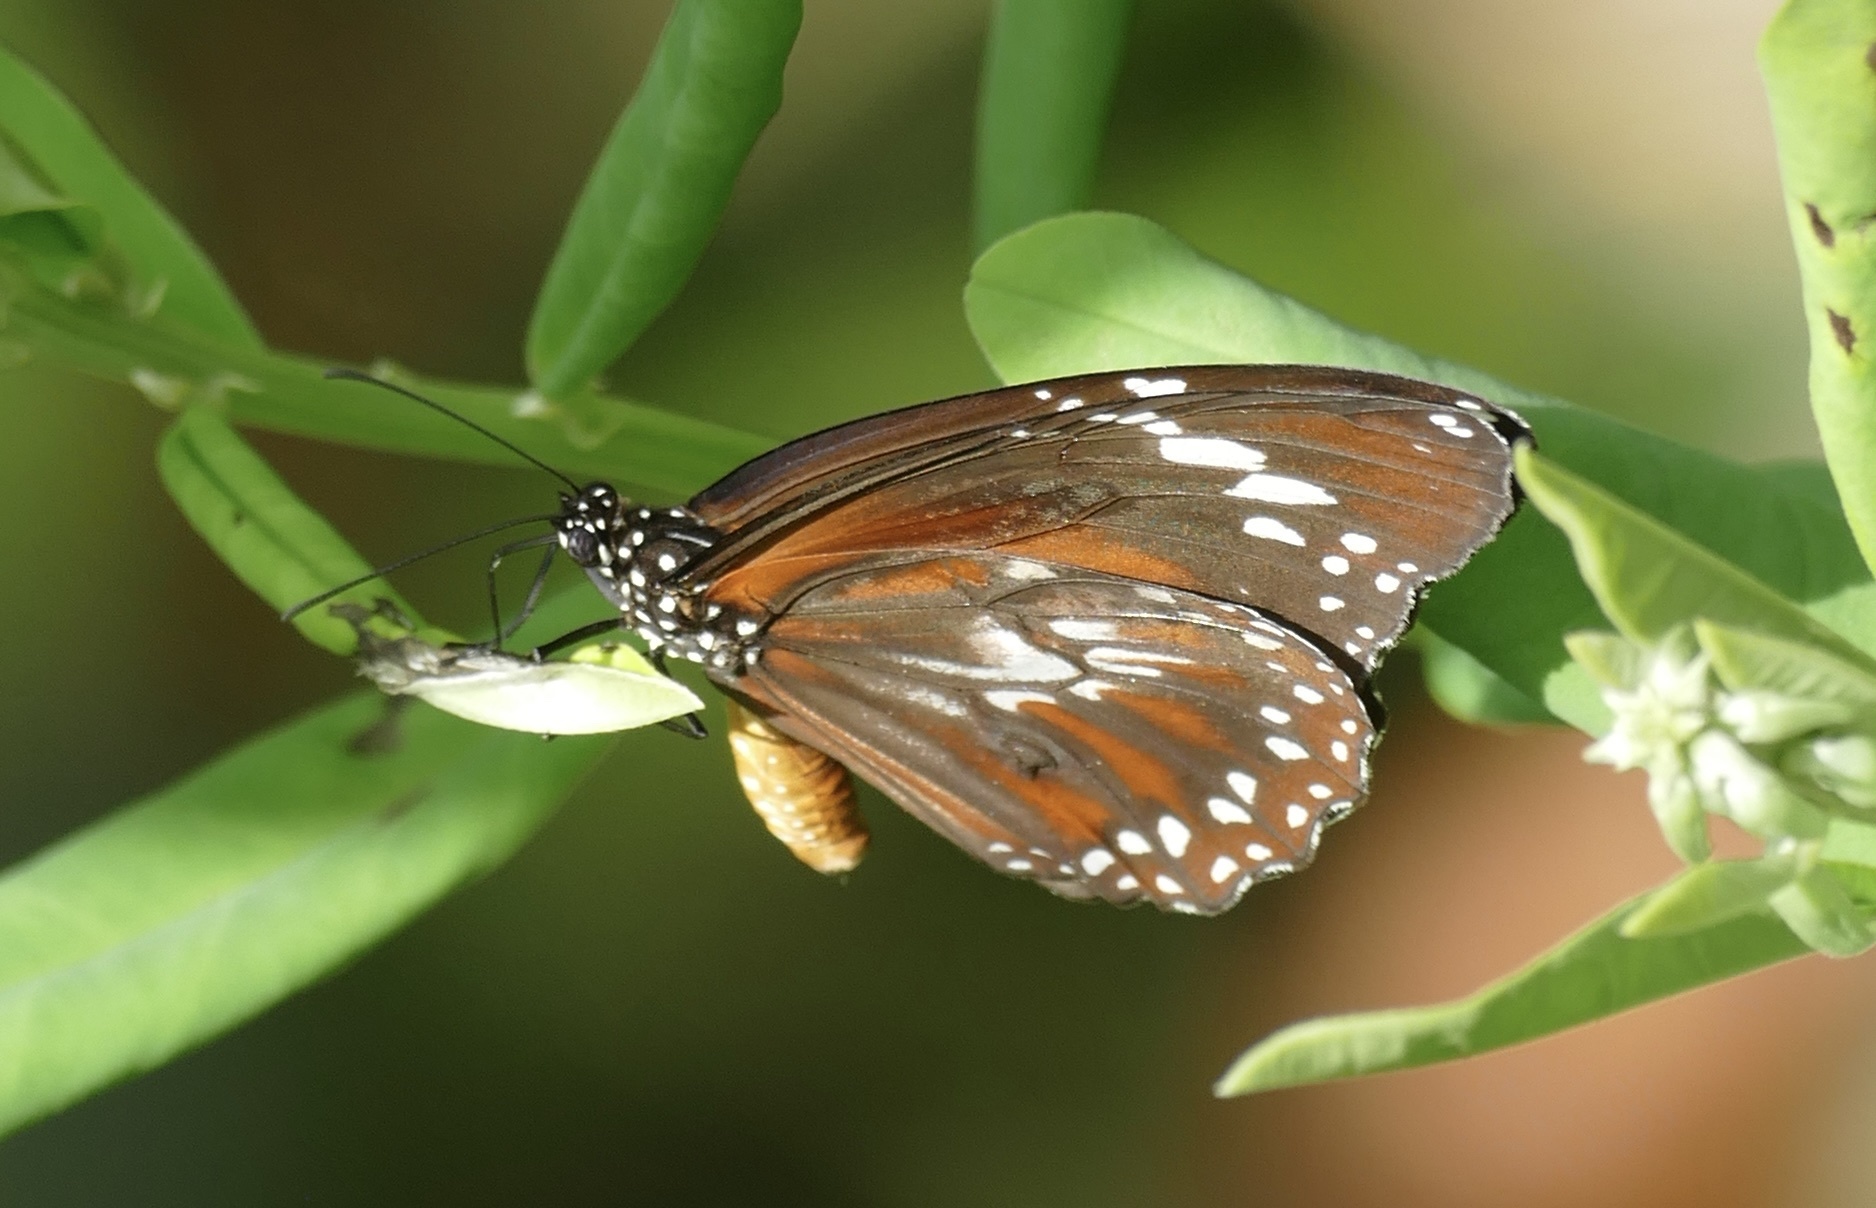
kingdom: Animalia
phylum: Arthropoda
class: Insecta
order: Lepidoptera
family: Nymphalidae
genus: Danaus
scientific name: Danaus affinis
